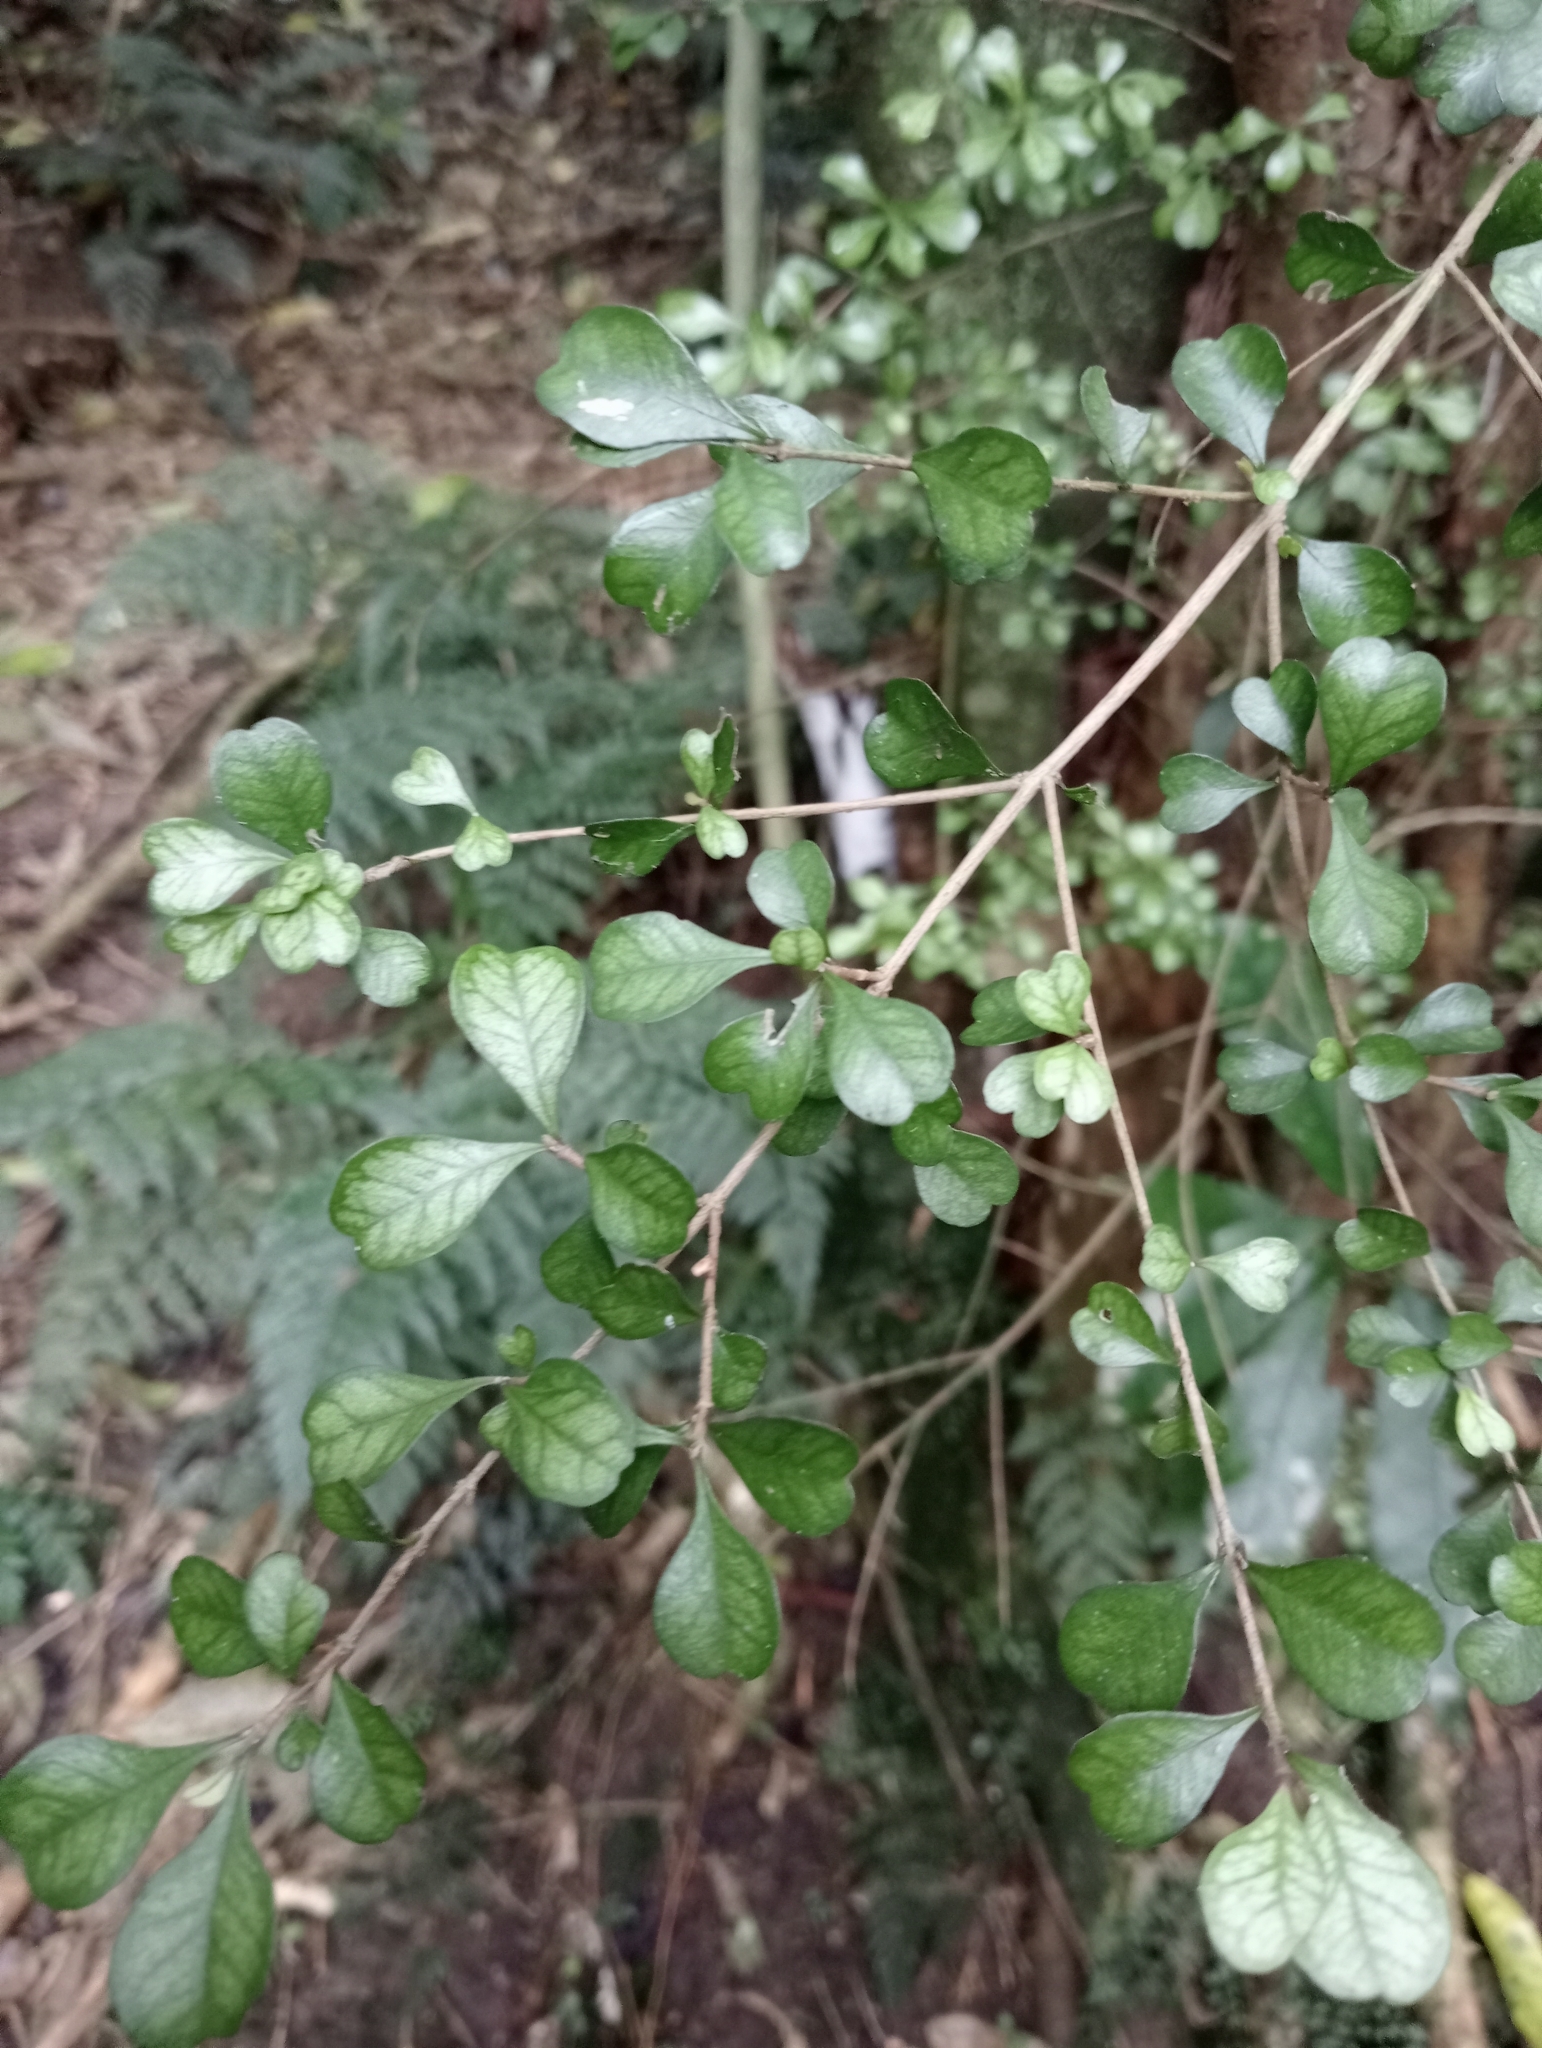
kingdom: Plantae
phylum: Tracheophyta
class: Magnoliopsida
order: Myrtales
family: Myrtaceae
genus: Lophomyrtus
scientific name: Lophomyrtus obcordata
